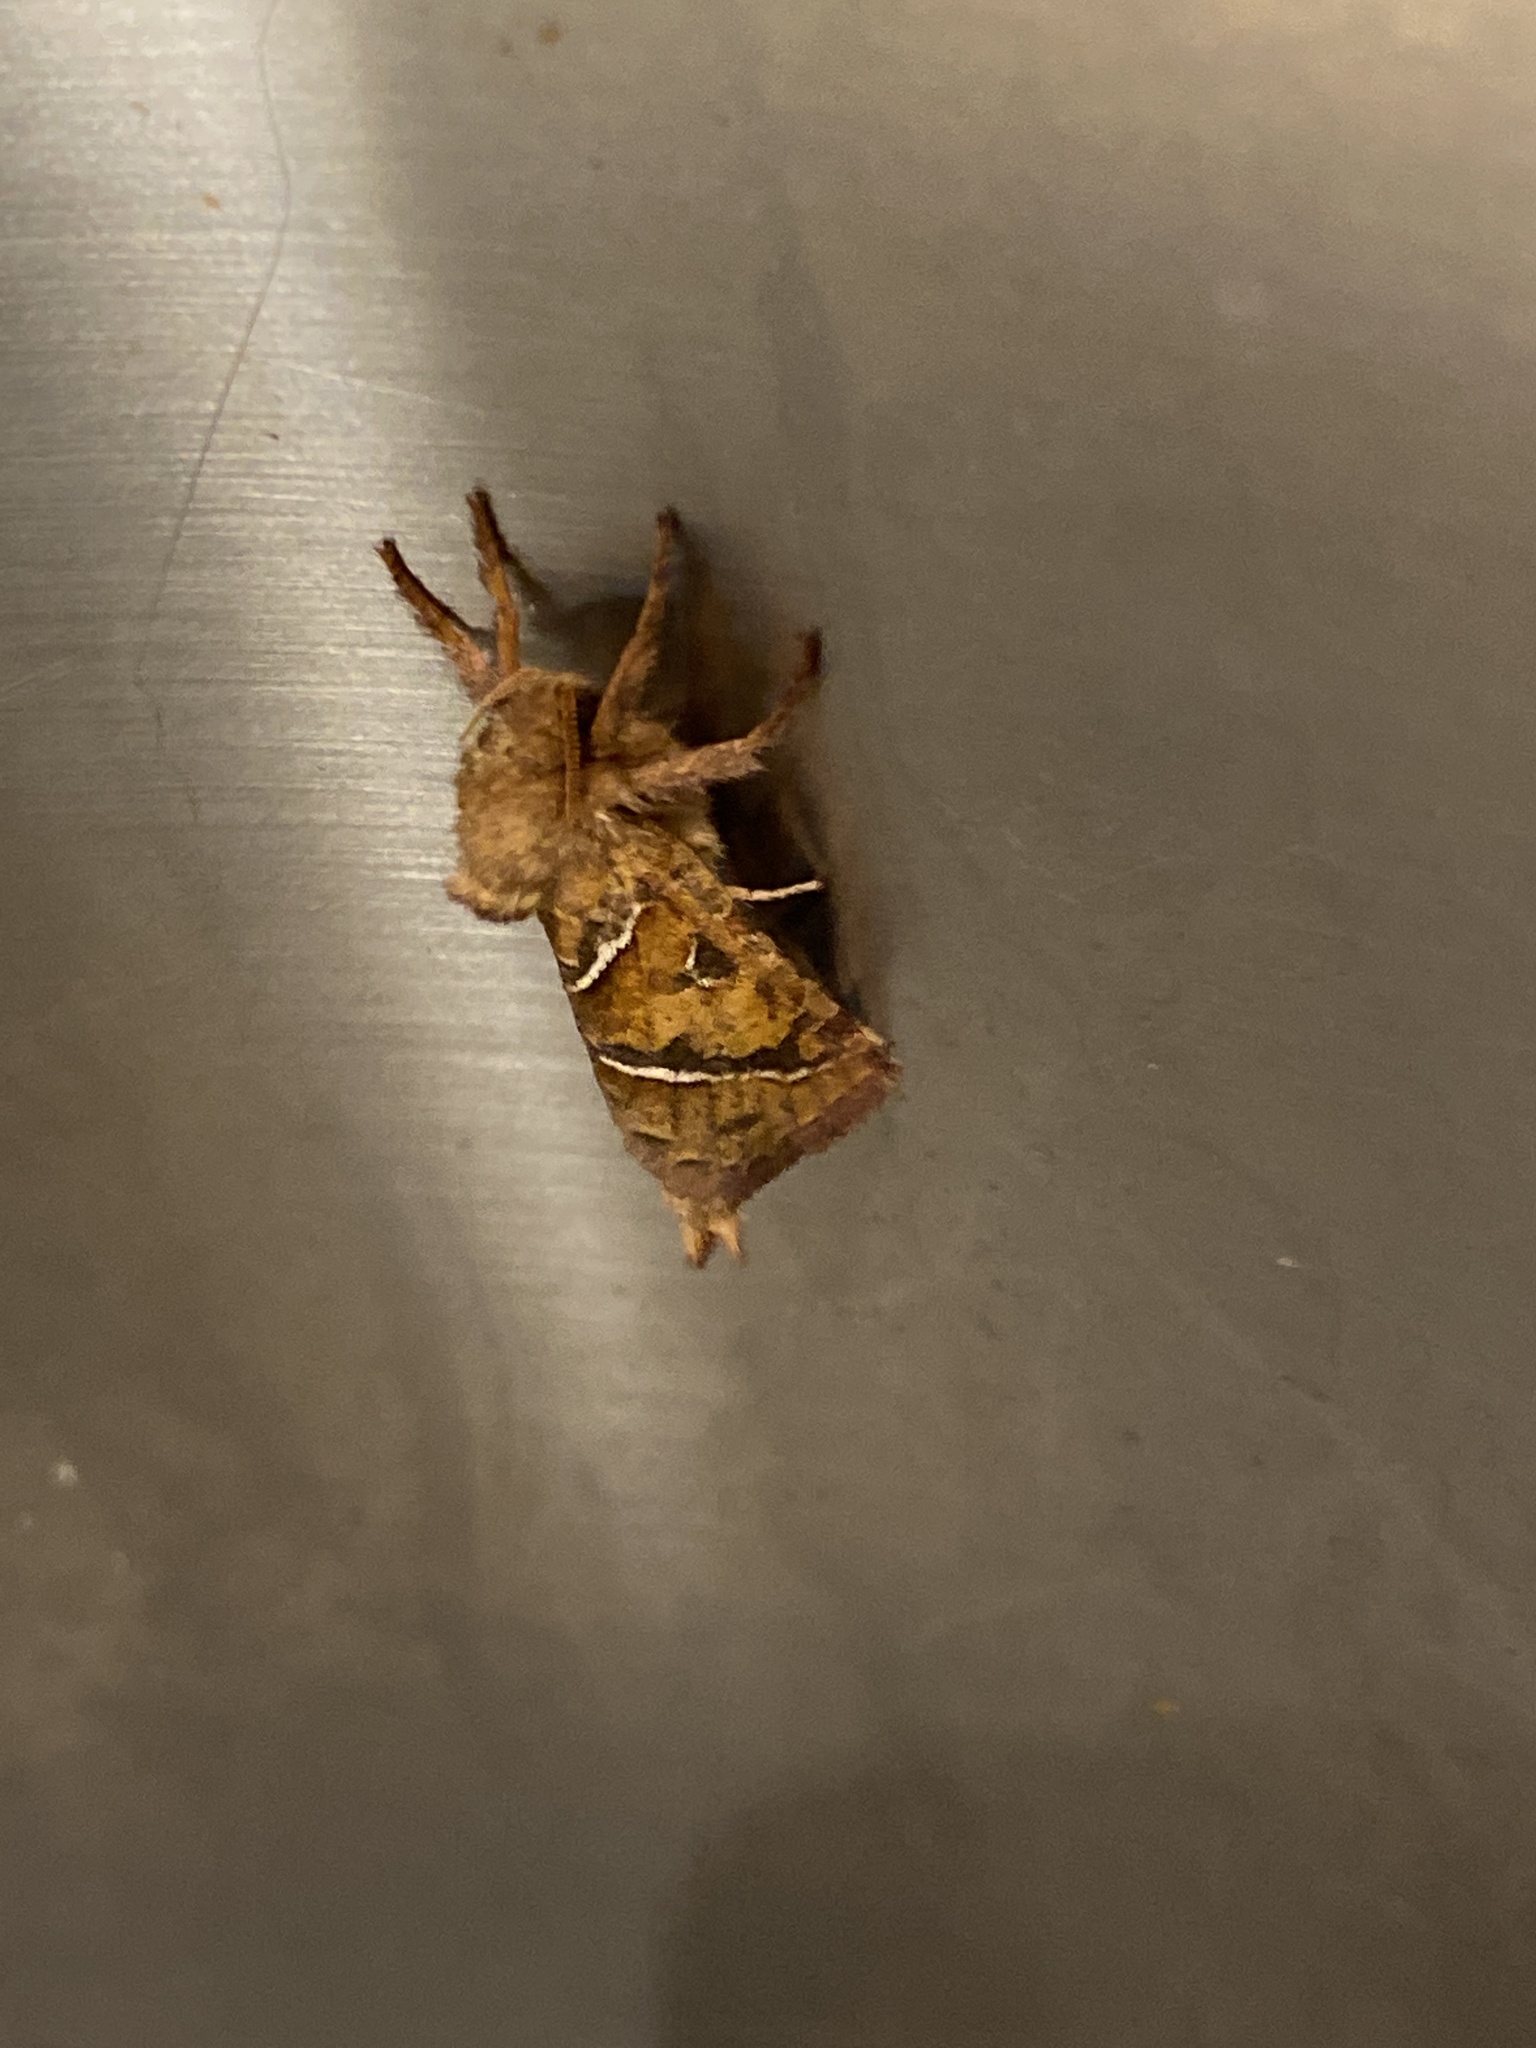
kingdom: Animalia
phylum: Arthropoda
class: Insecta
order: Lepidoptera
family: Hepialidae
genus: Triodia
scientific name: Triodia sylvina
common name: Orange swift
